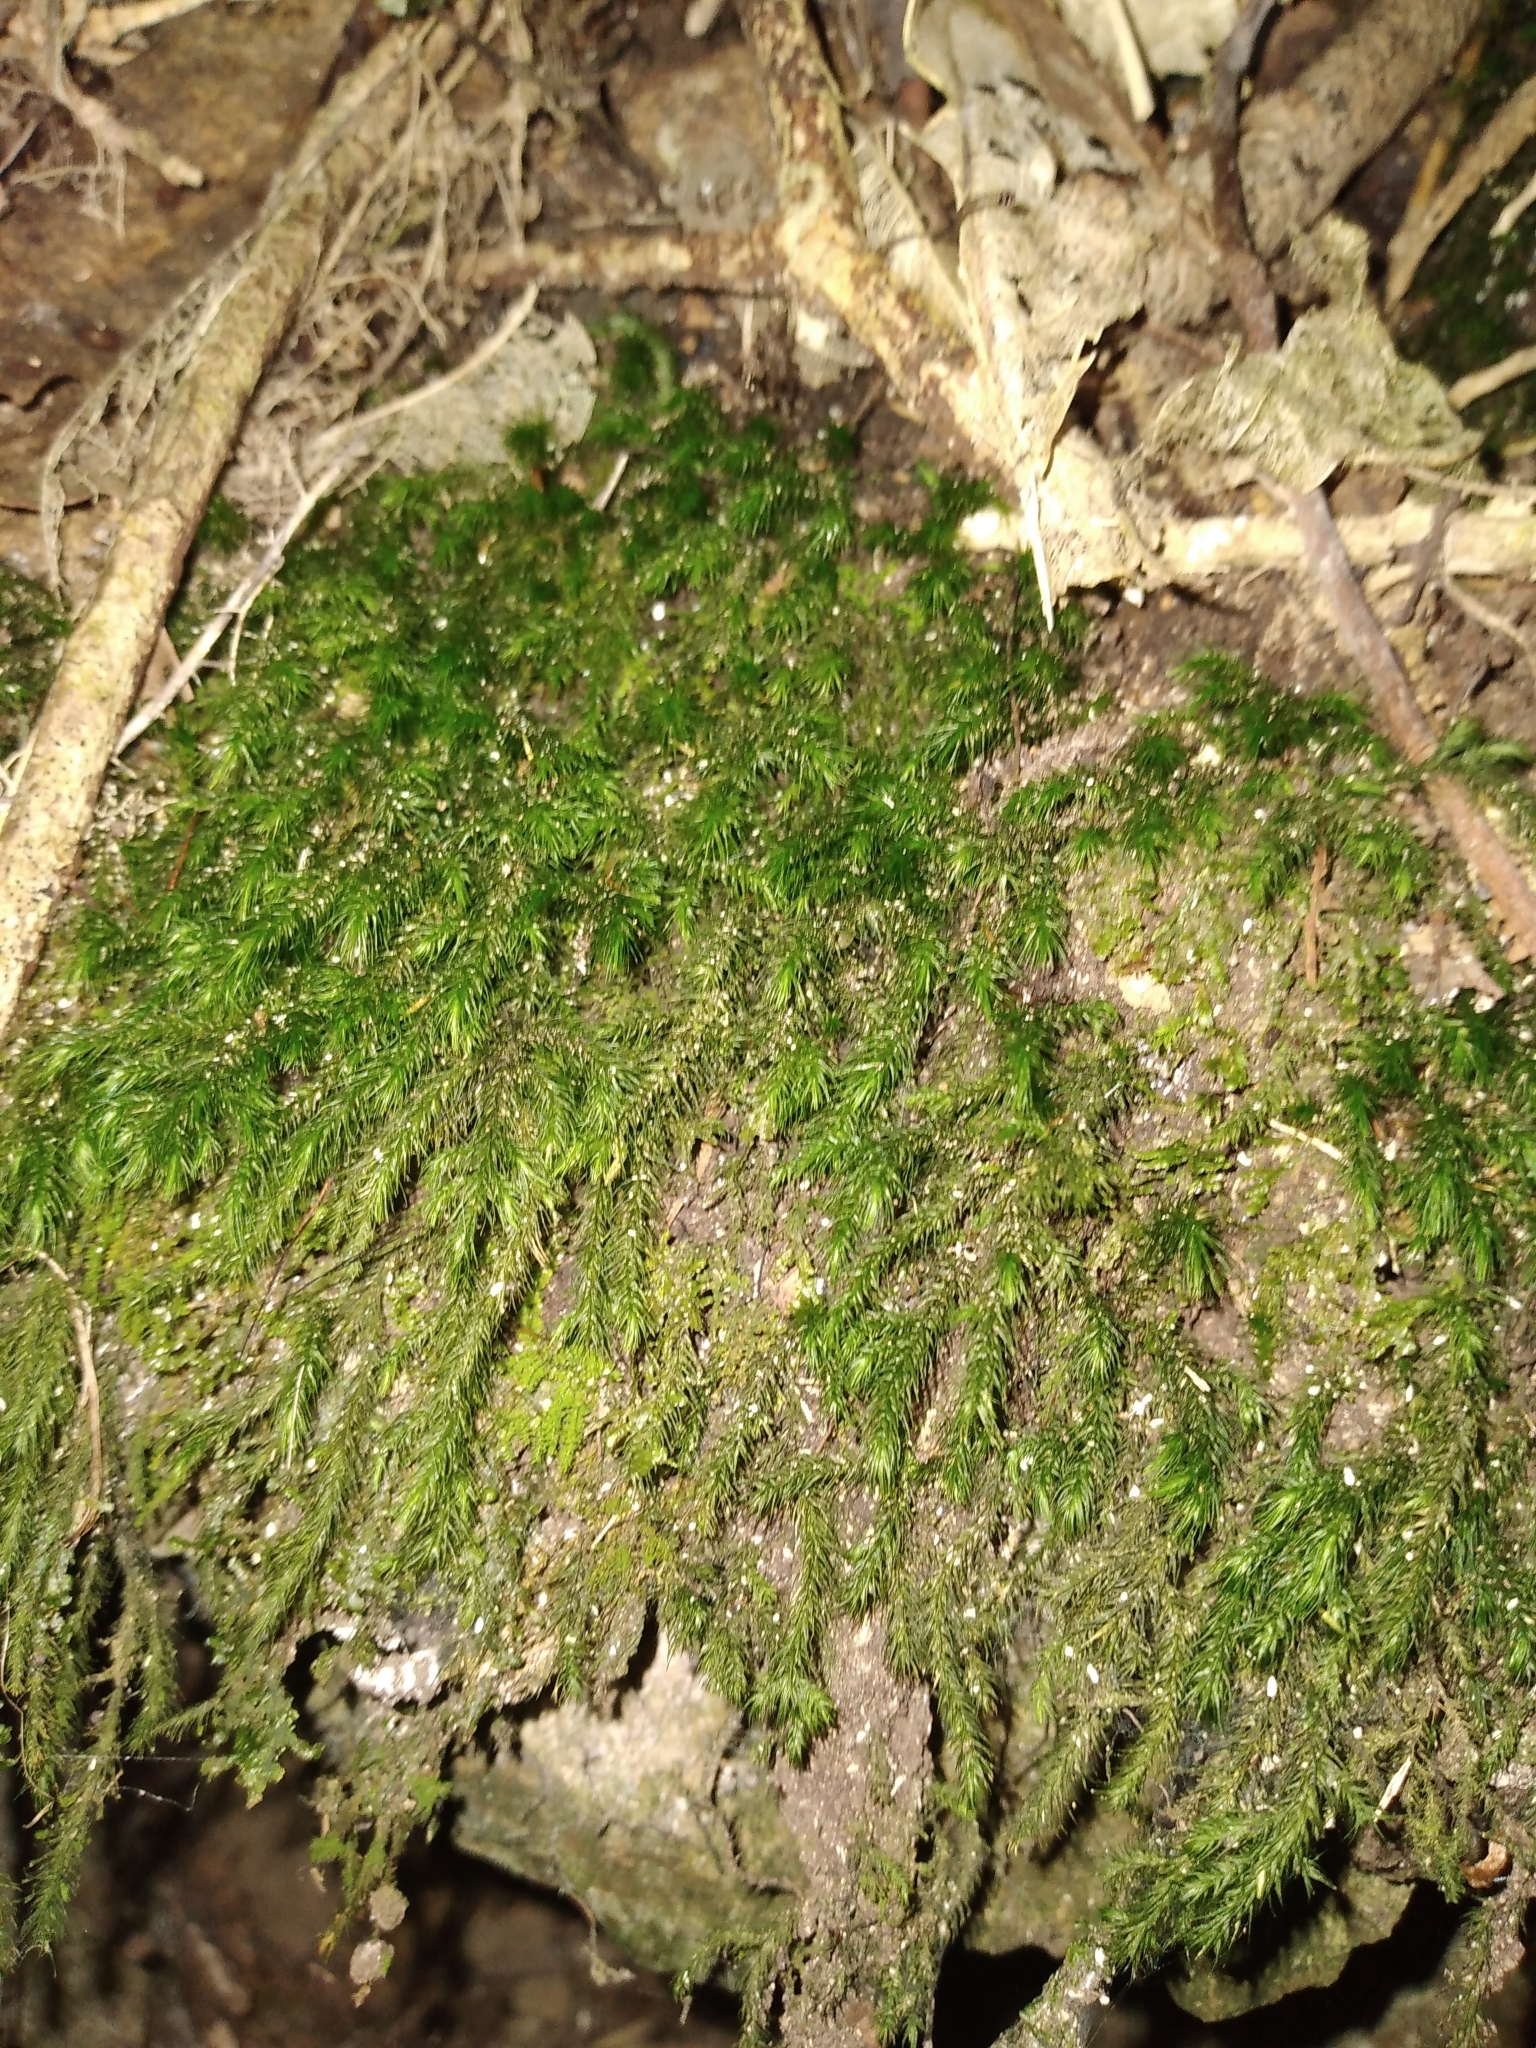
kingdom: Plantae
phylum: Bryophyta
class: Bryopsida
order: Hypnales
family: Neckeraceae
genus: Echinodiopsis
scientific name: Echinodiopsis hispida
